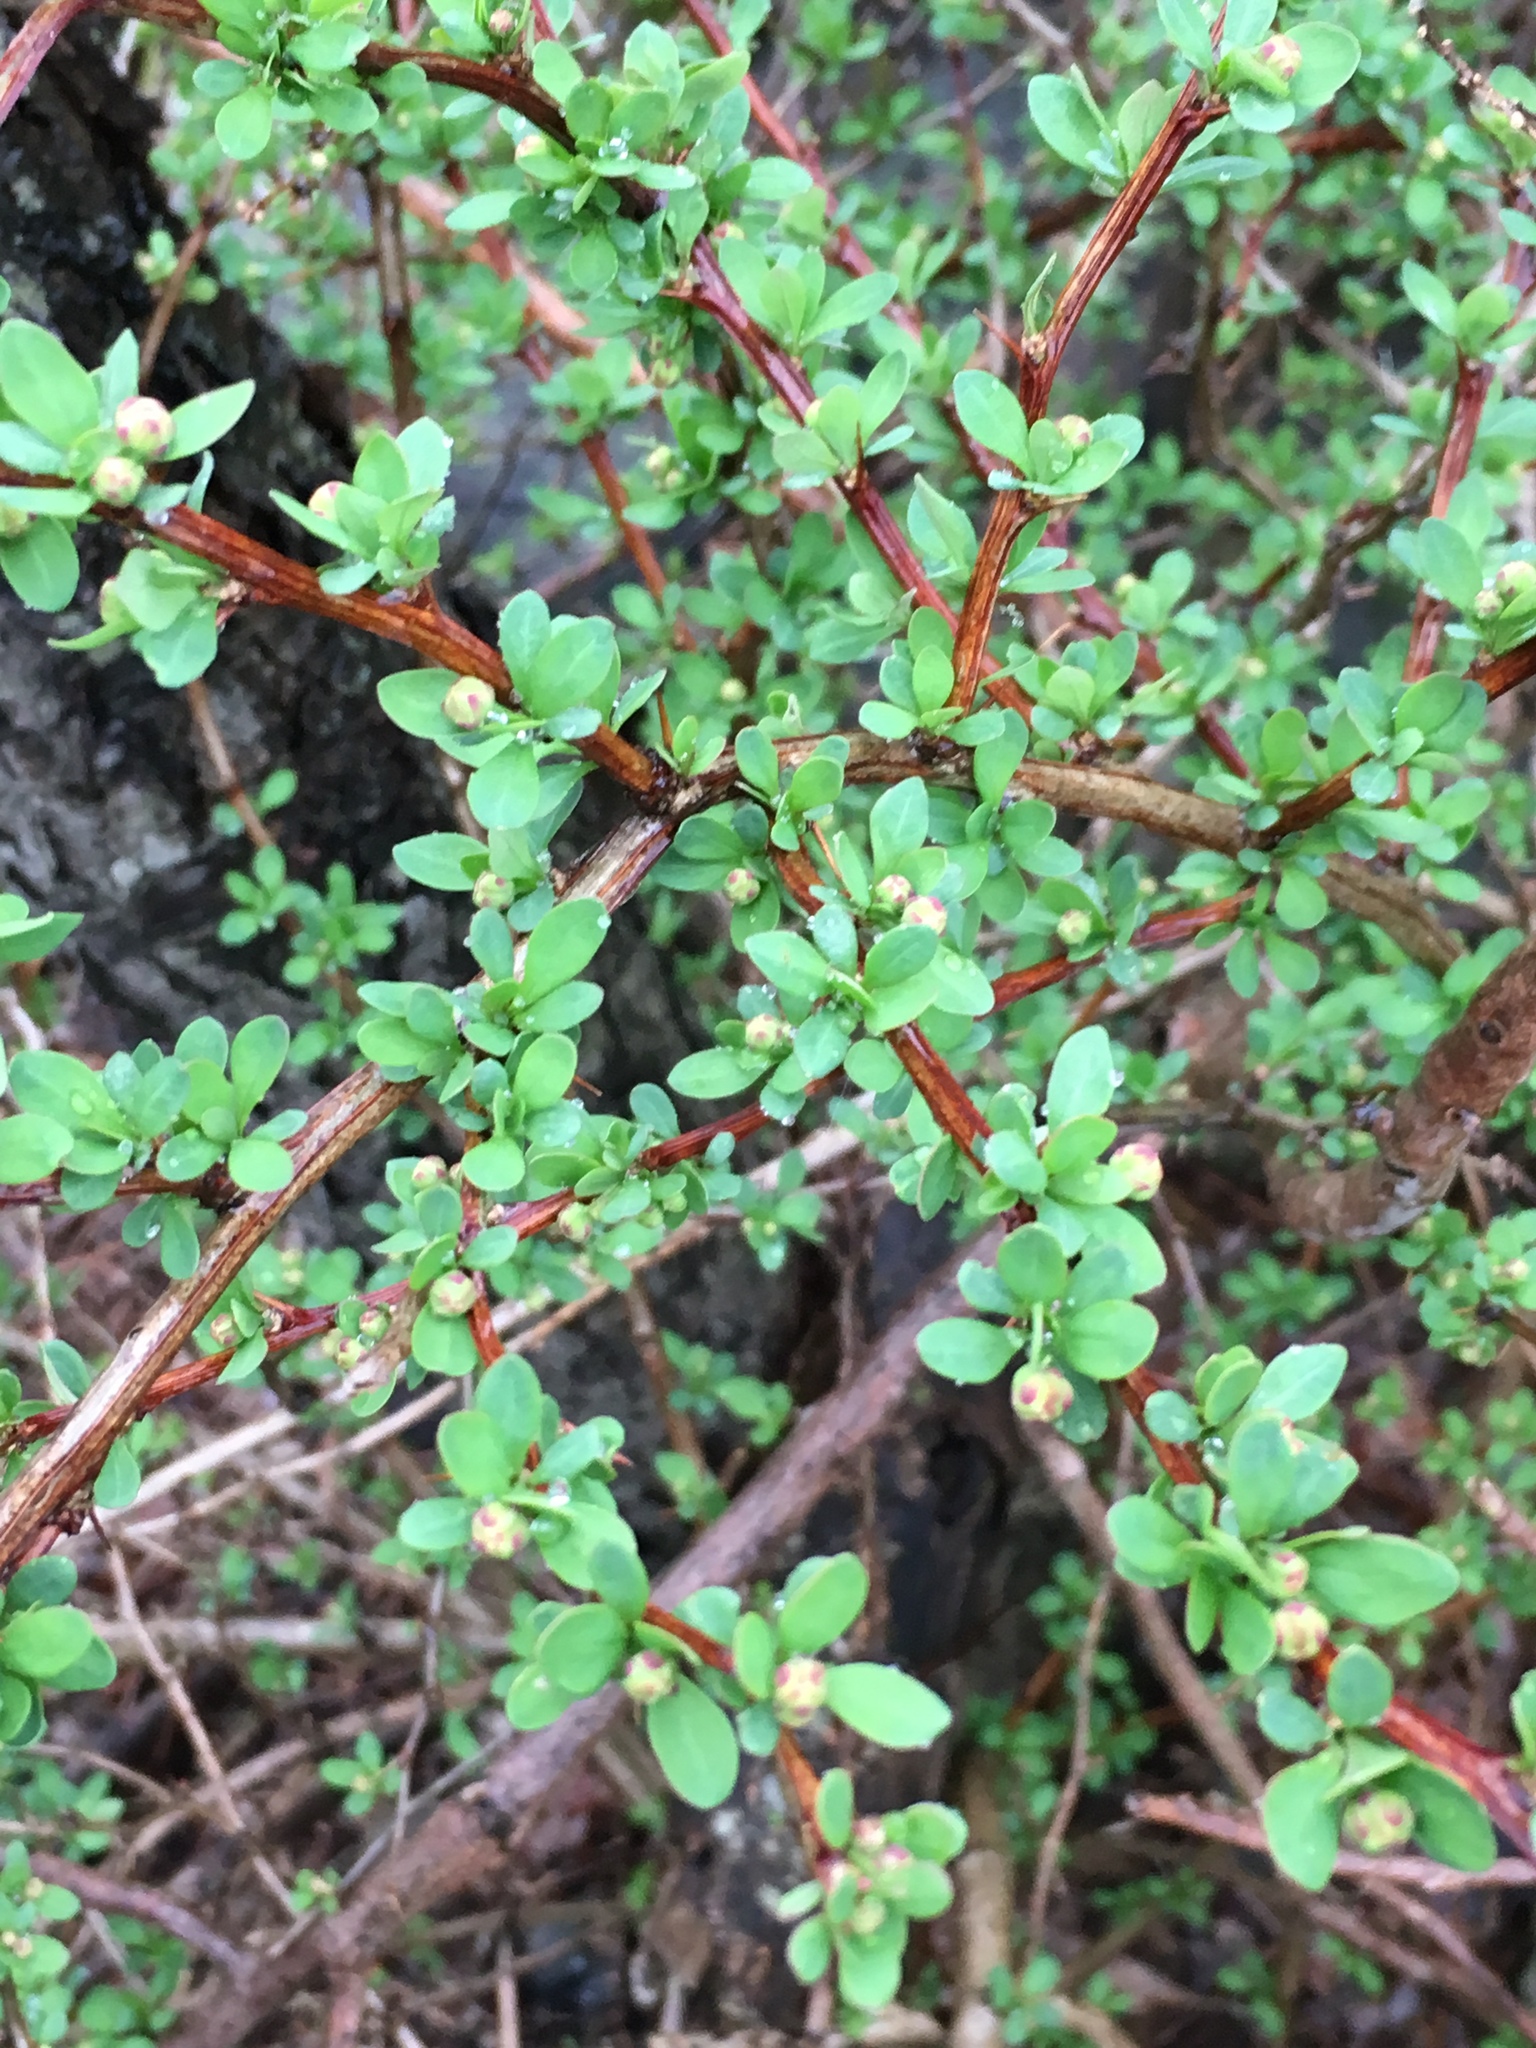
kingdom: Plantae
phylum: Tracheophyta
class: Magnoliopsida
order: Ranunculales
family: Berberidaceae
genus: Berberis
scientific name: Berberis thunbergii
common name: Japanese barberry
